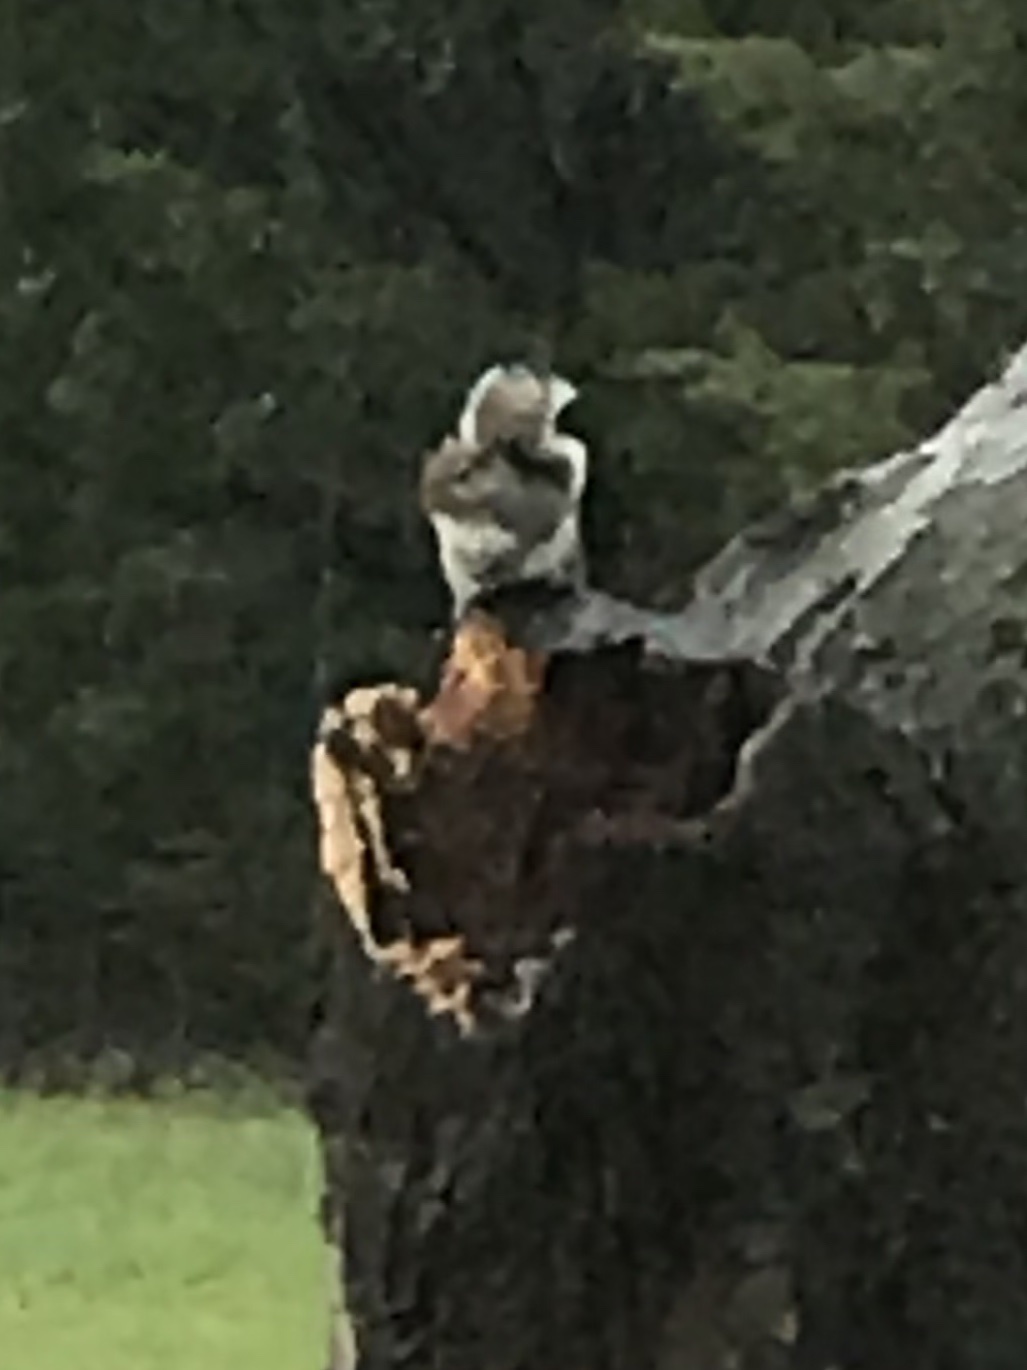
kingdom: Animalia
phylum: Chordata
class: Mammalia
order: Rodentia
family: Sciuridae
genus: Sciurus
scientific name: Sciurus carolinensis
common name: Eastern gray squirrel
